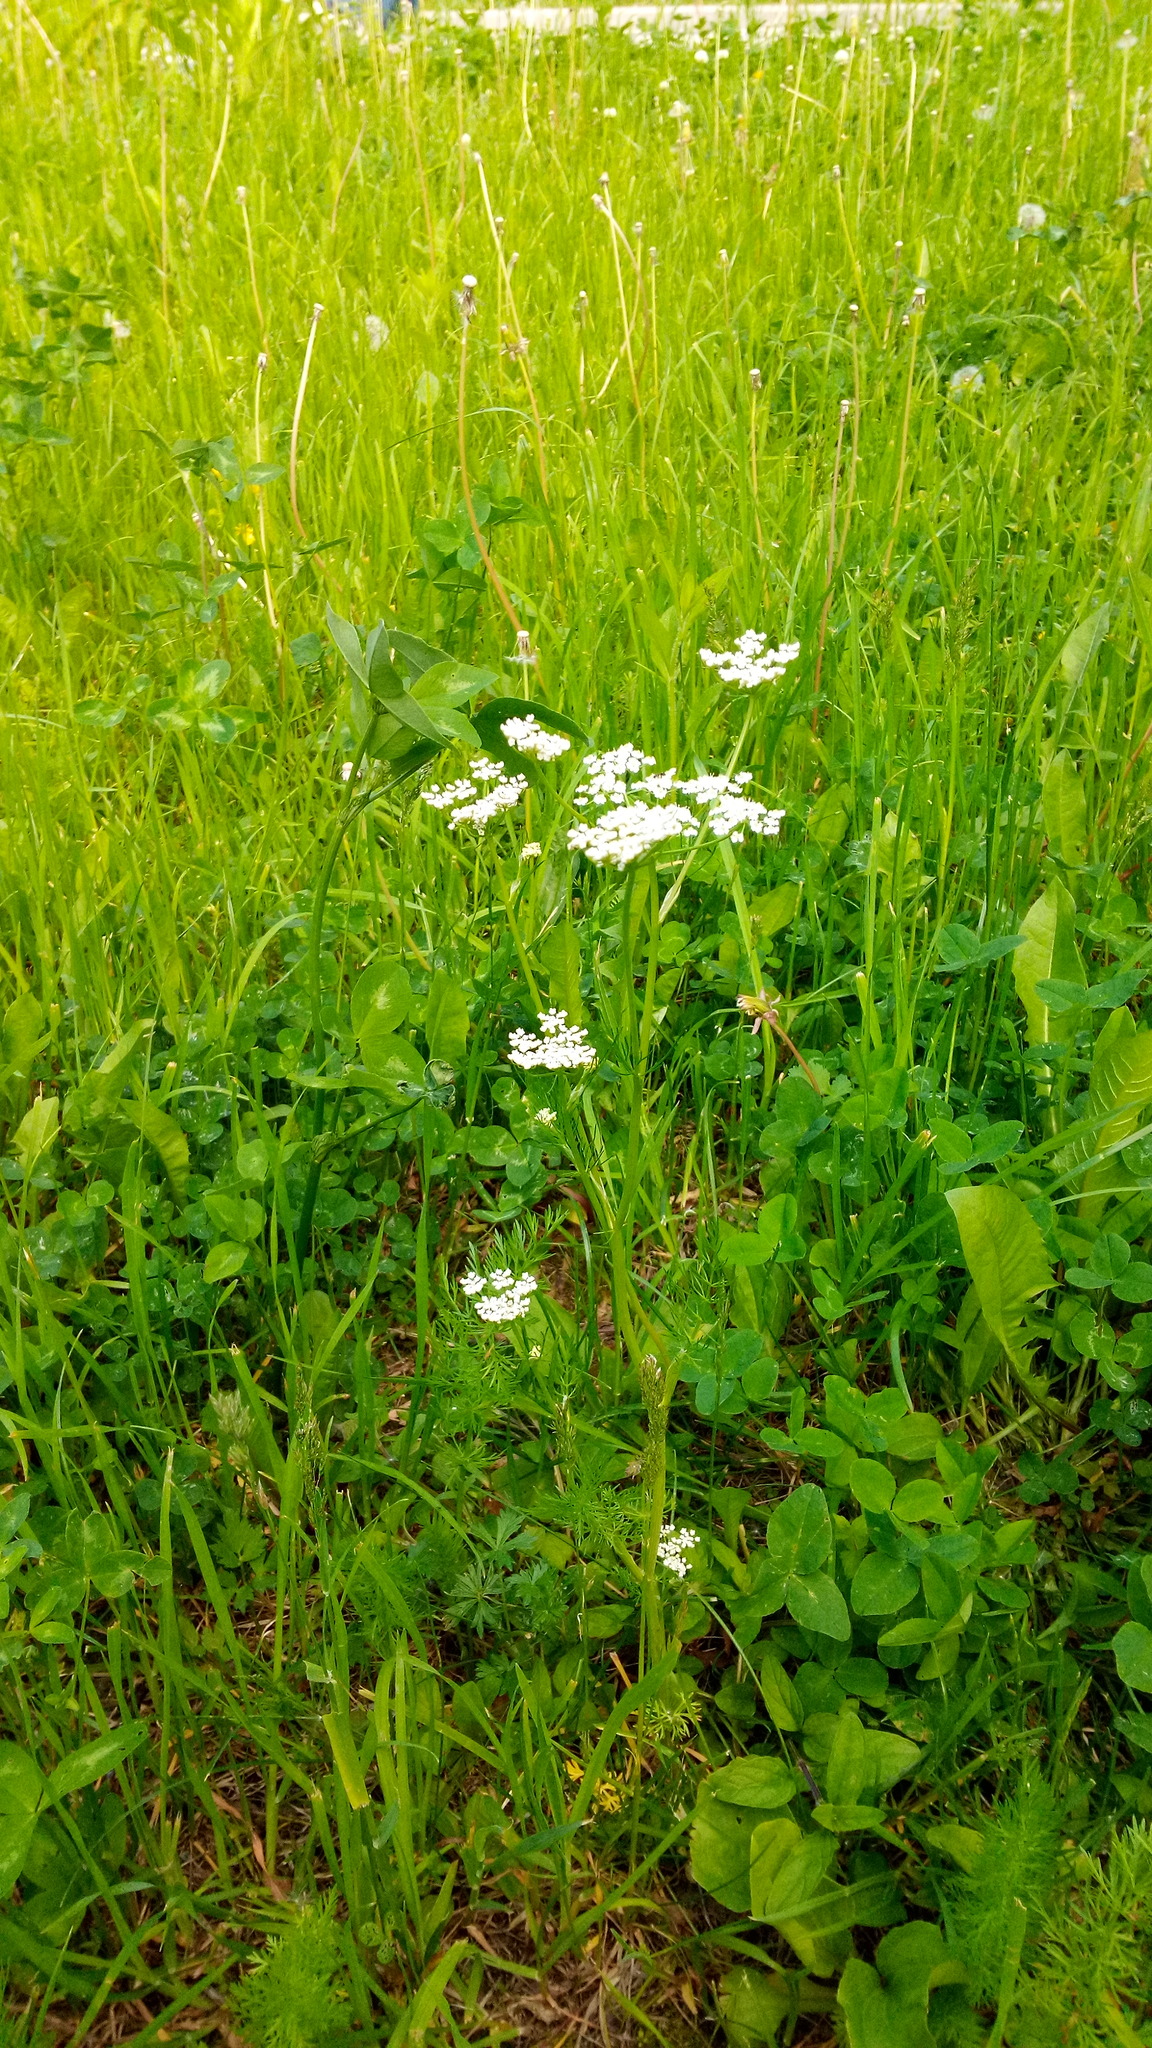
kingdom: Plantae
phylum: Tracheophyta
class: Magnoliopsida
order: Apiales
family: Apiaceae
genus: Carum
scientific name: Carum carvi
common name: Caraway
